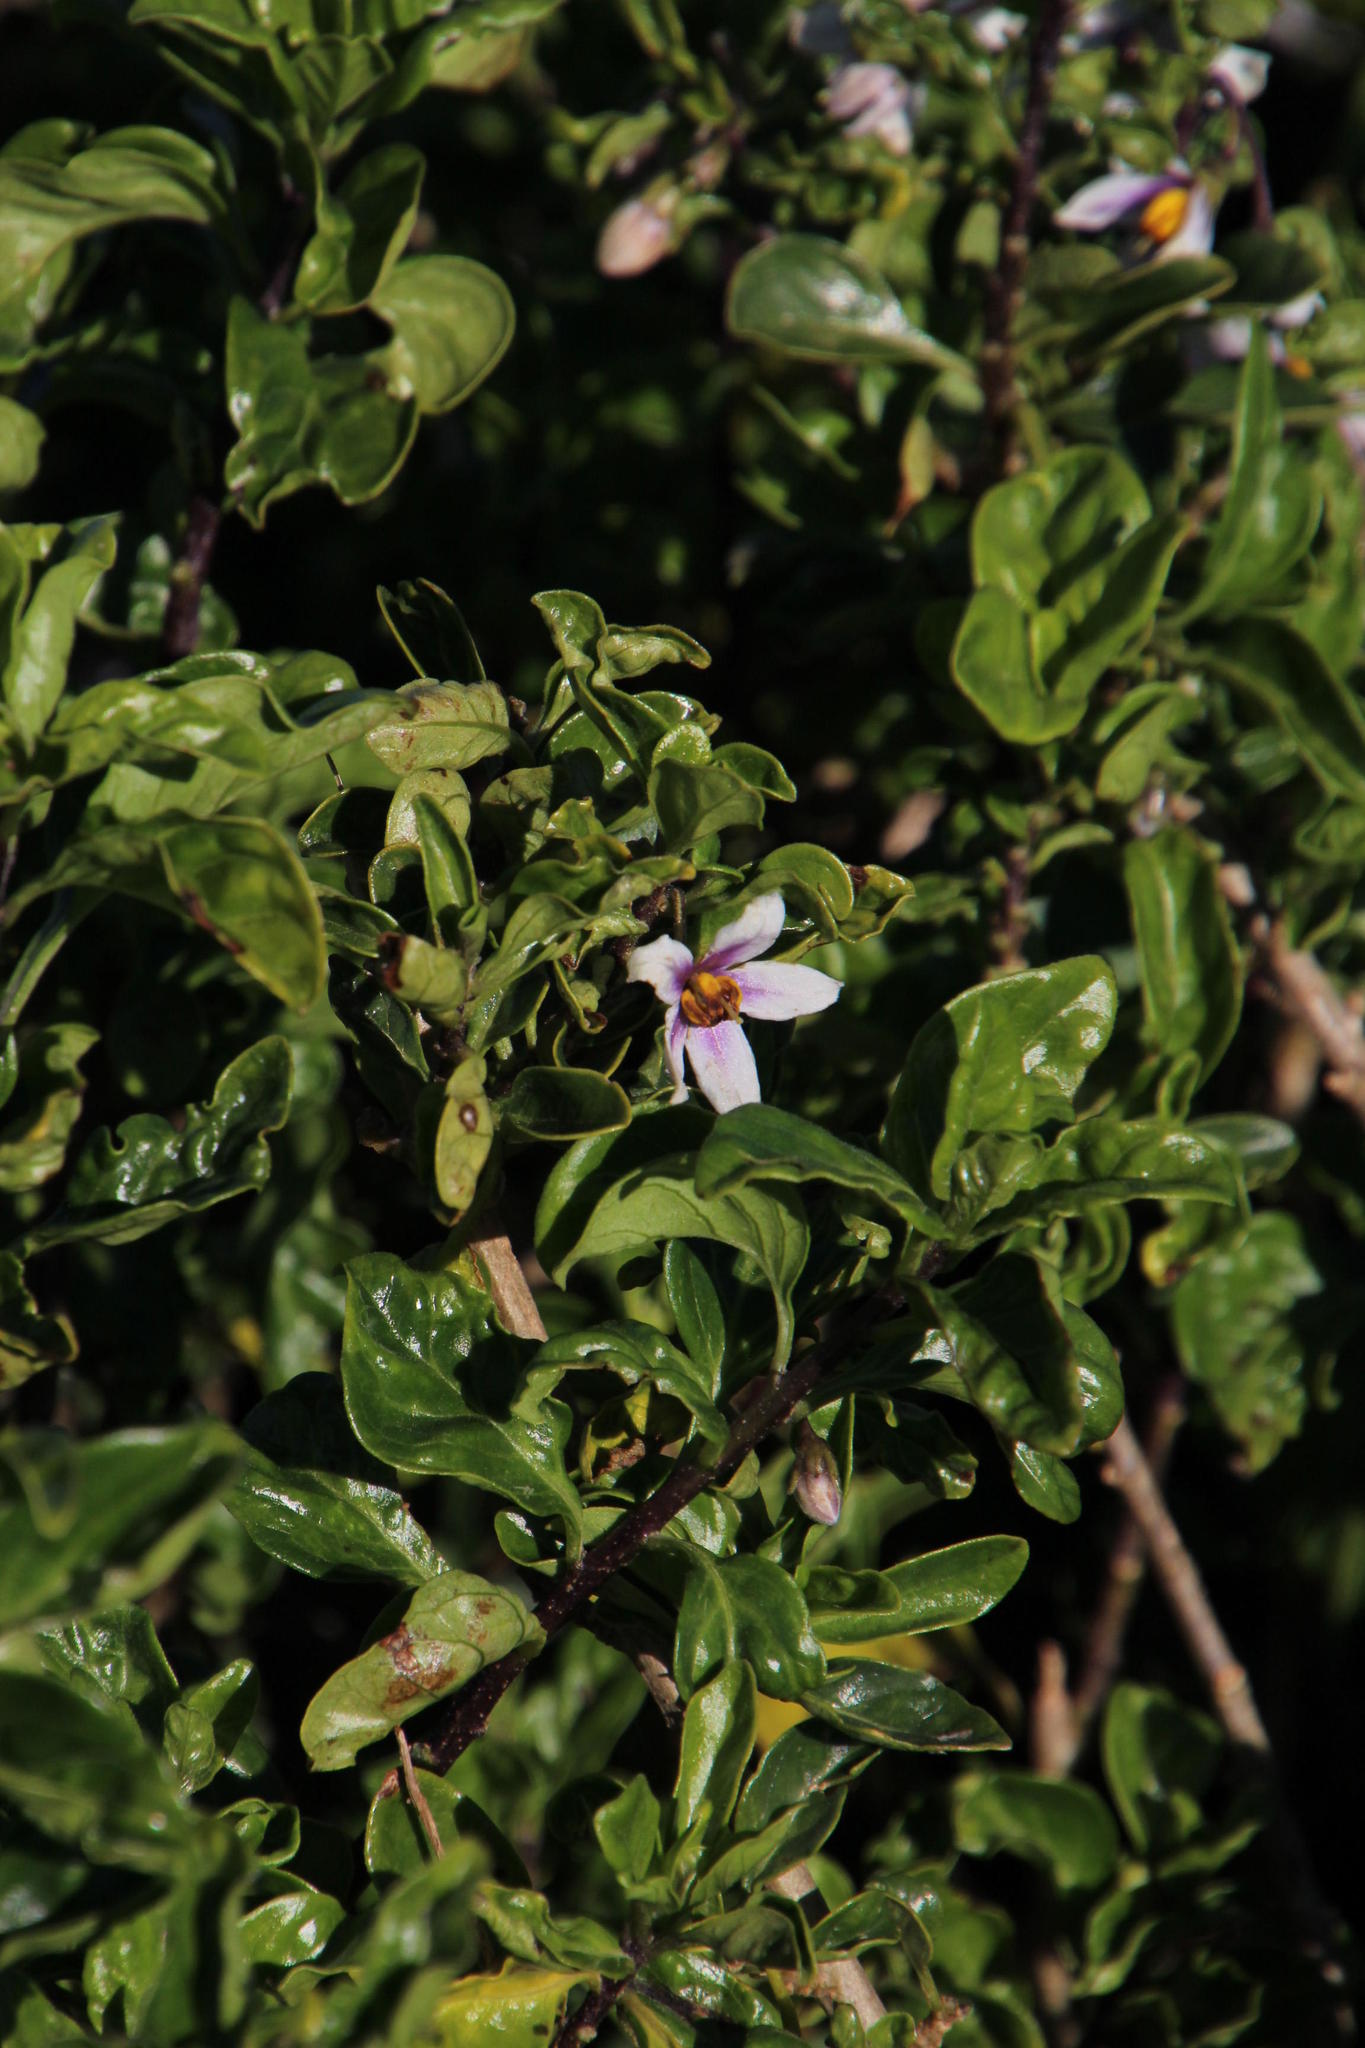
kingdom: Plantae
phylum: Tracheophyta
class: Magnoliopsida
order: Solanales
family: Solanaceae
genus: Solanum
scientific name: Solanum guineense
